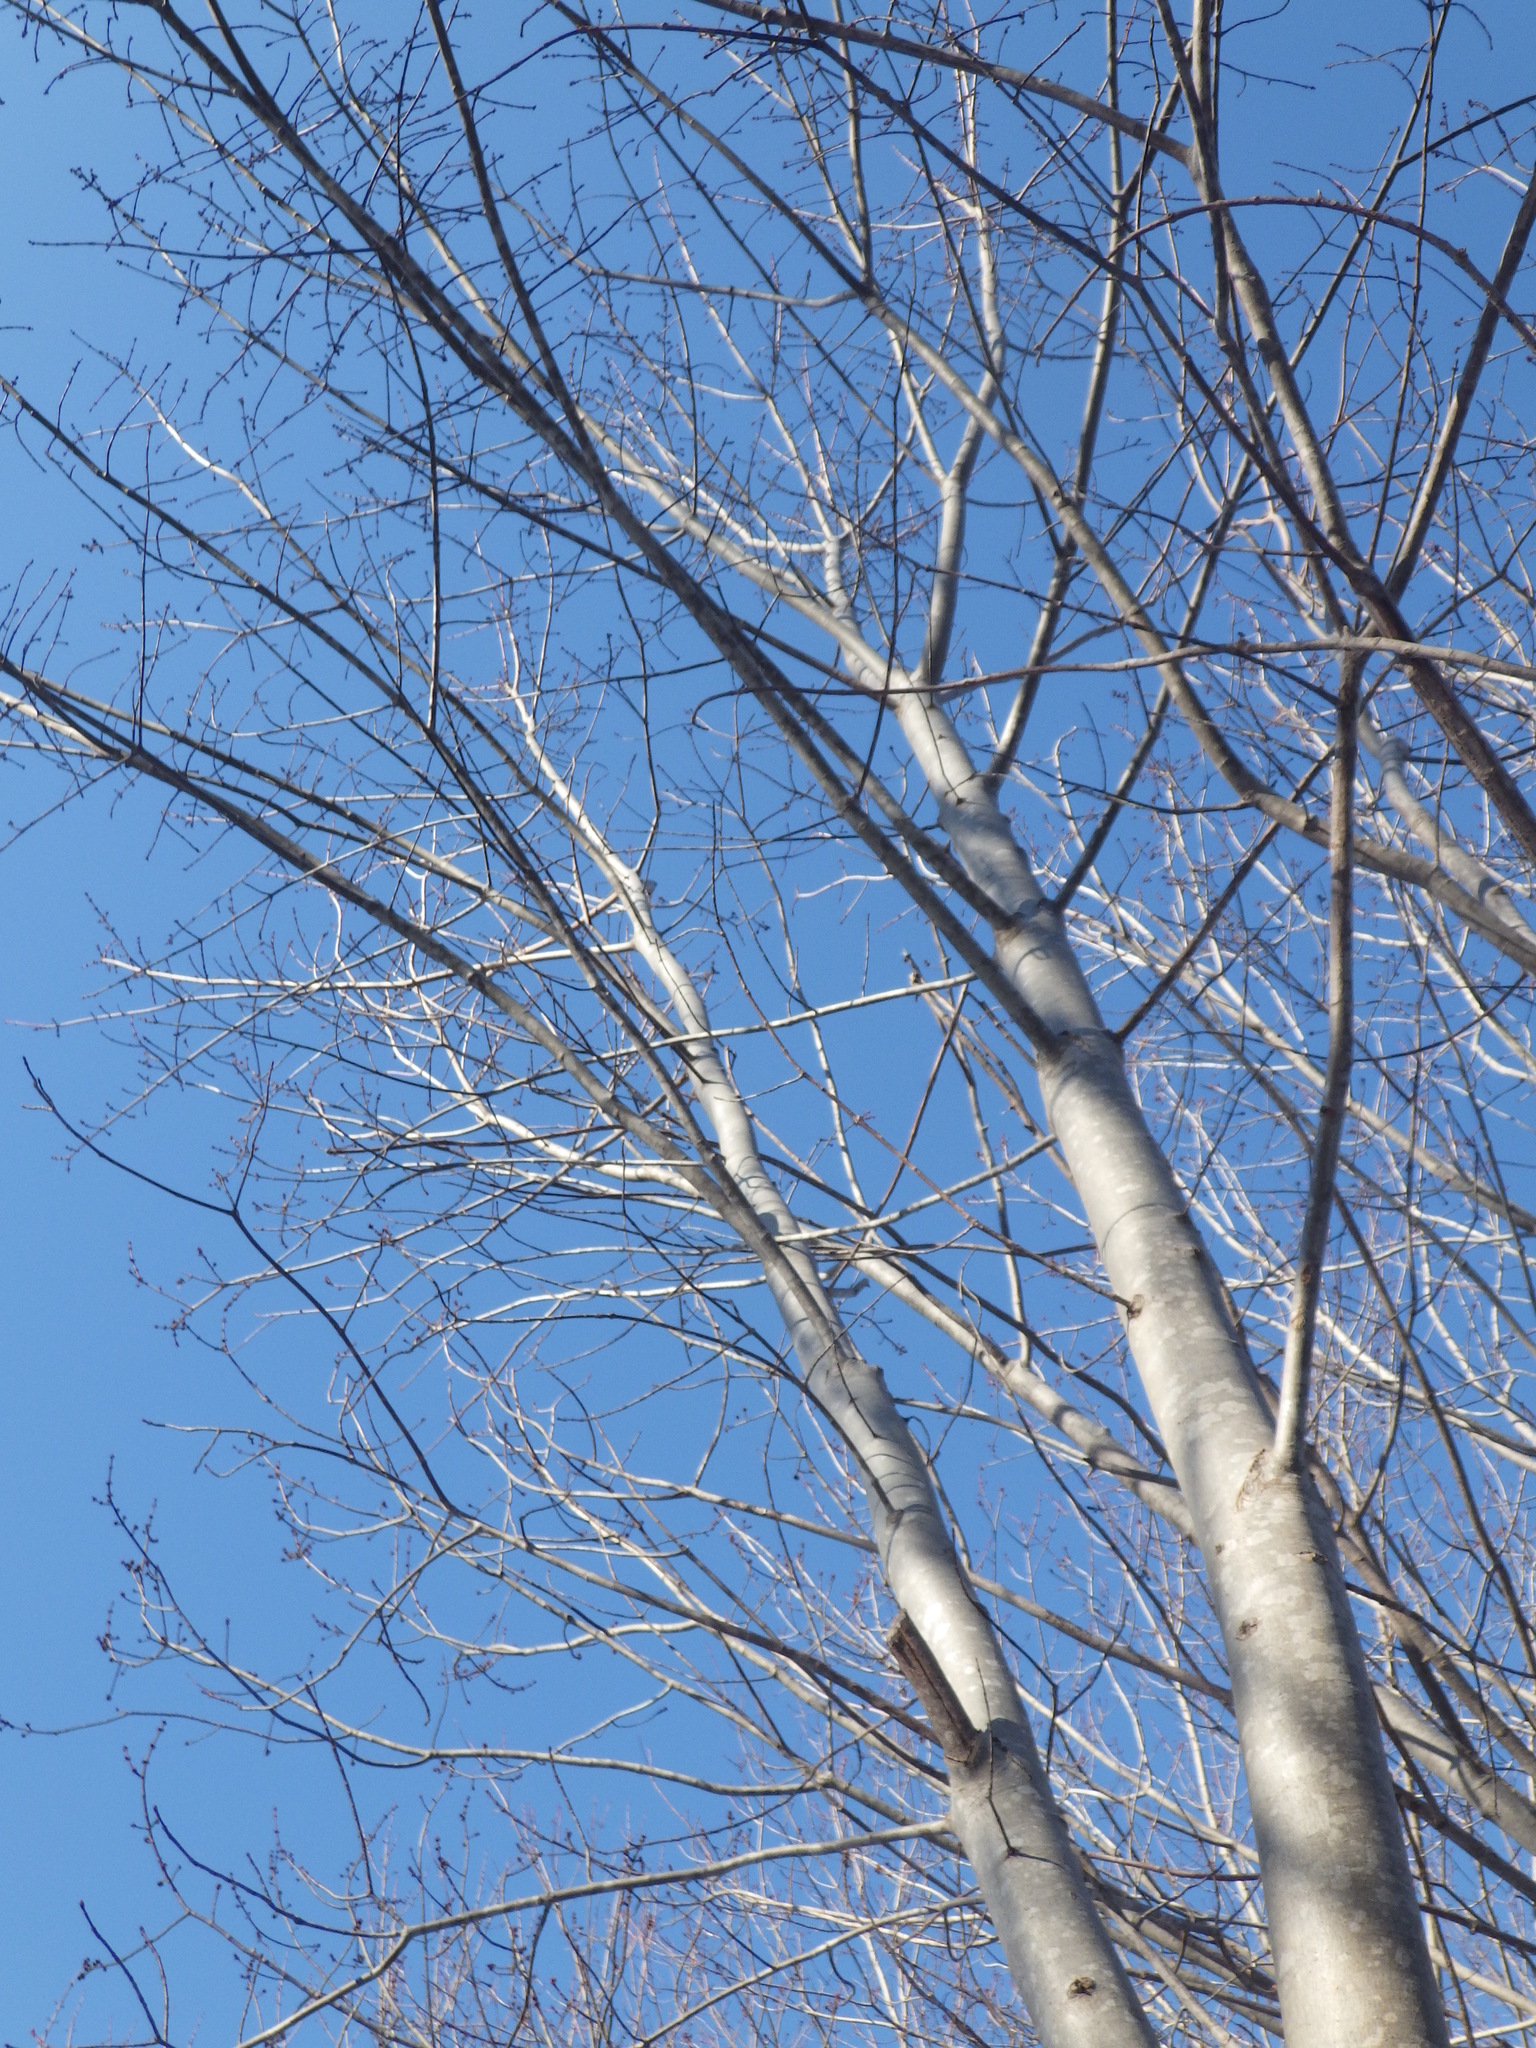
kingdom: Plantae
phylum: Tracheophyta
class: Magnoliopsida
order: Sapindales
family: Sapindaceae
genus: Acer
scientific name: Acer rubrum
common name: Red maple
